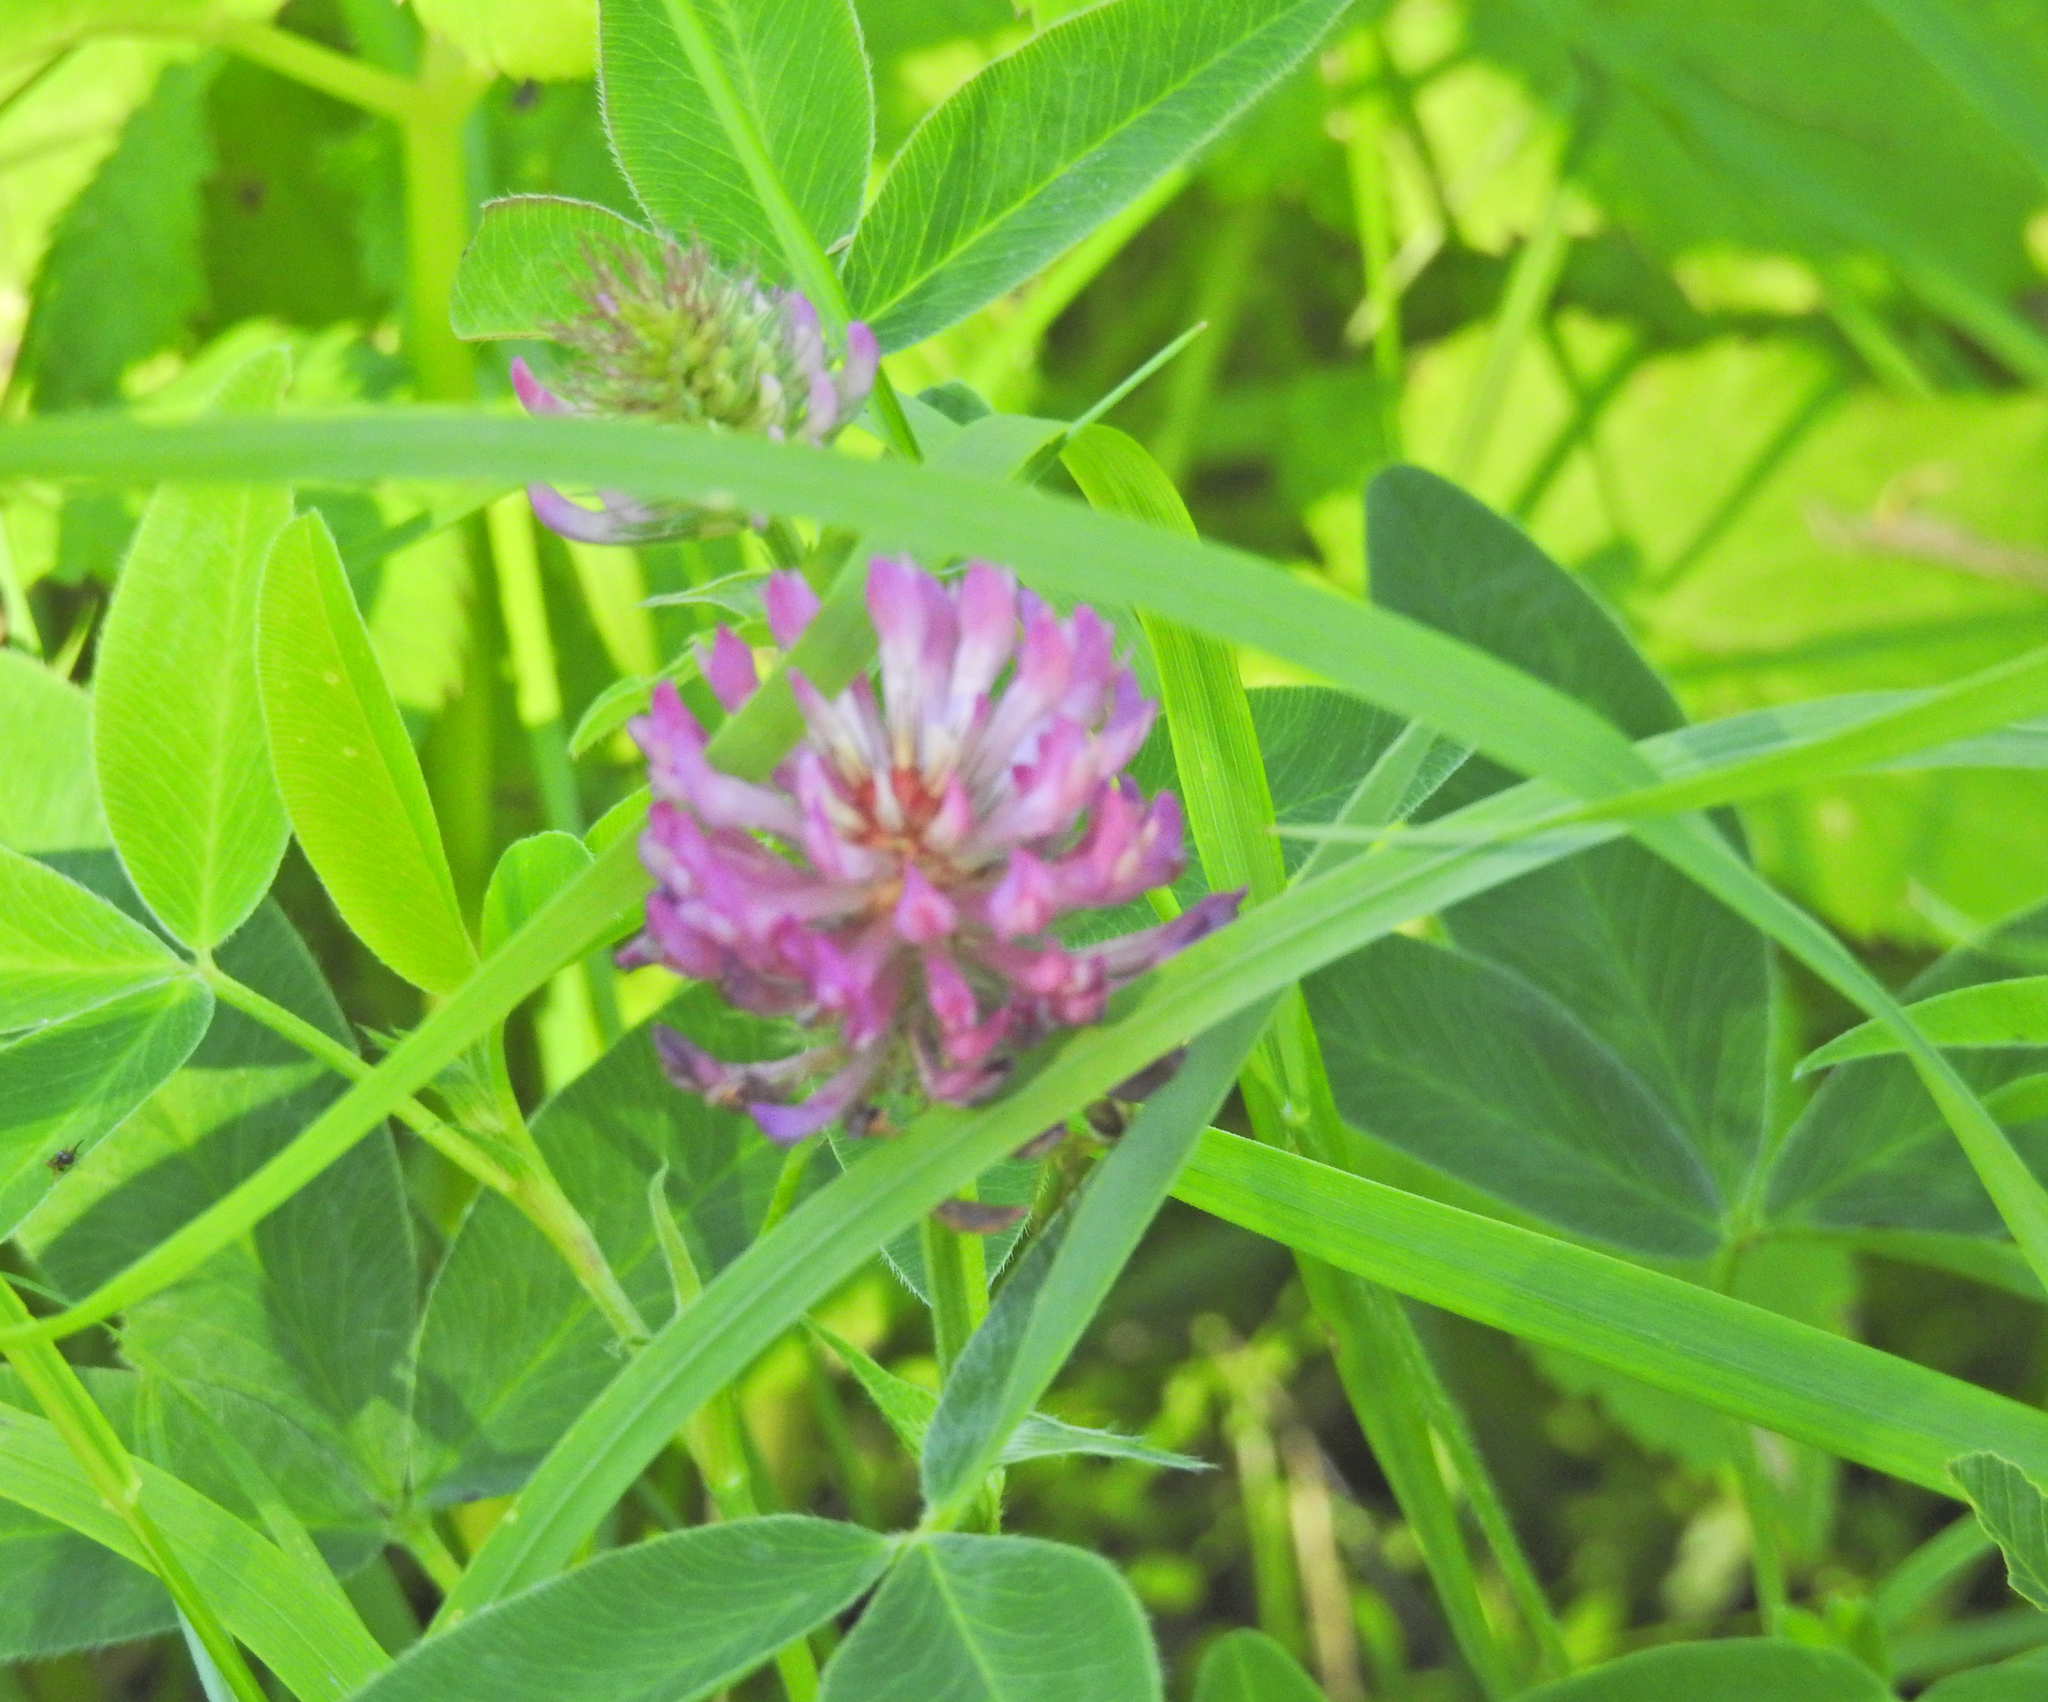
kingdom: Plantae
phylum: Tracheophyta
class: Magnoliopsida
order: Fabales
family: Fabaceae
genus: Trifolium
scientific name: Trifolium medium
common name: Zigzag clover
